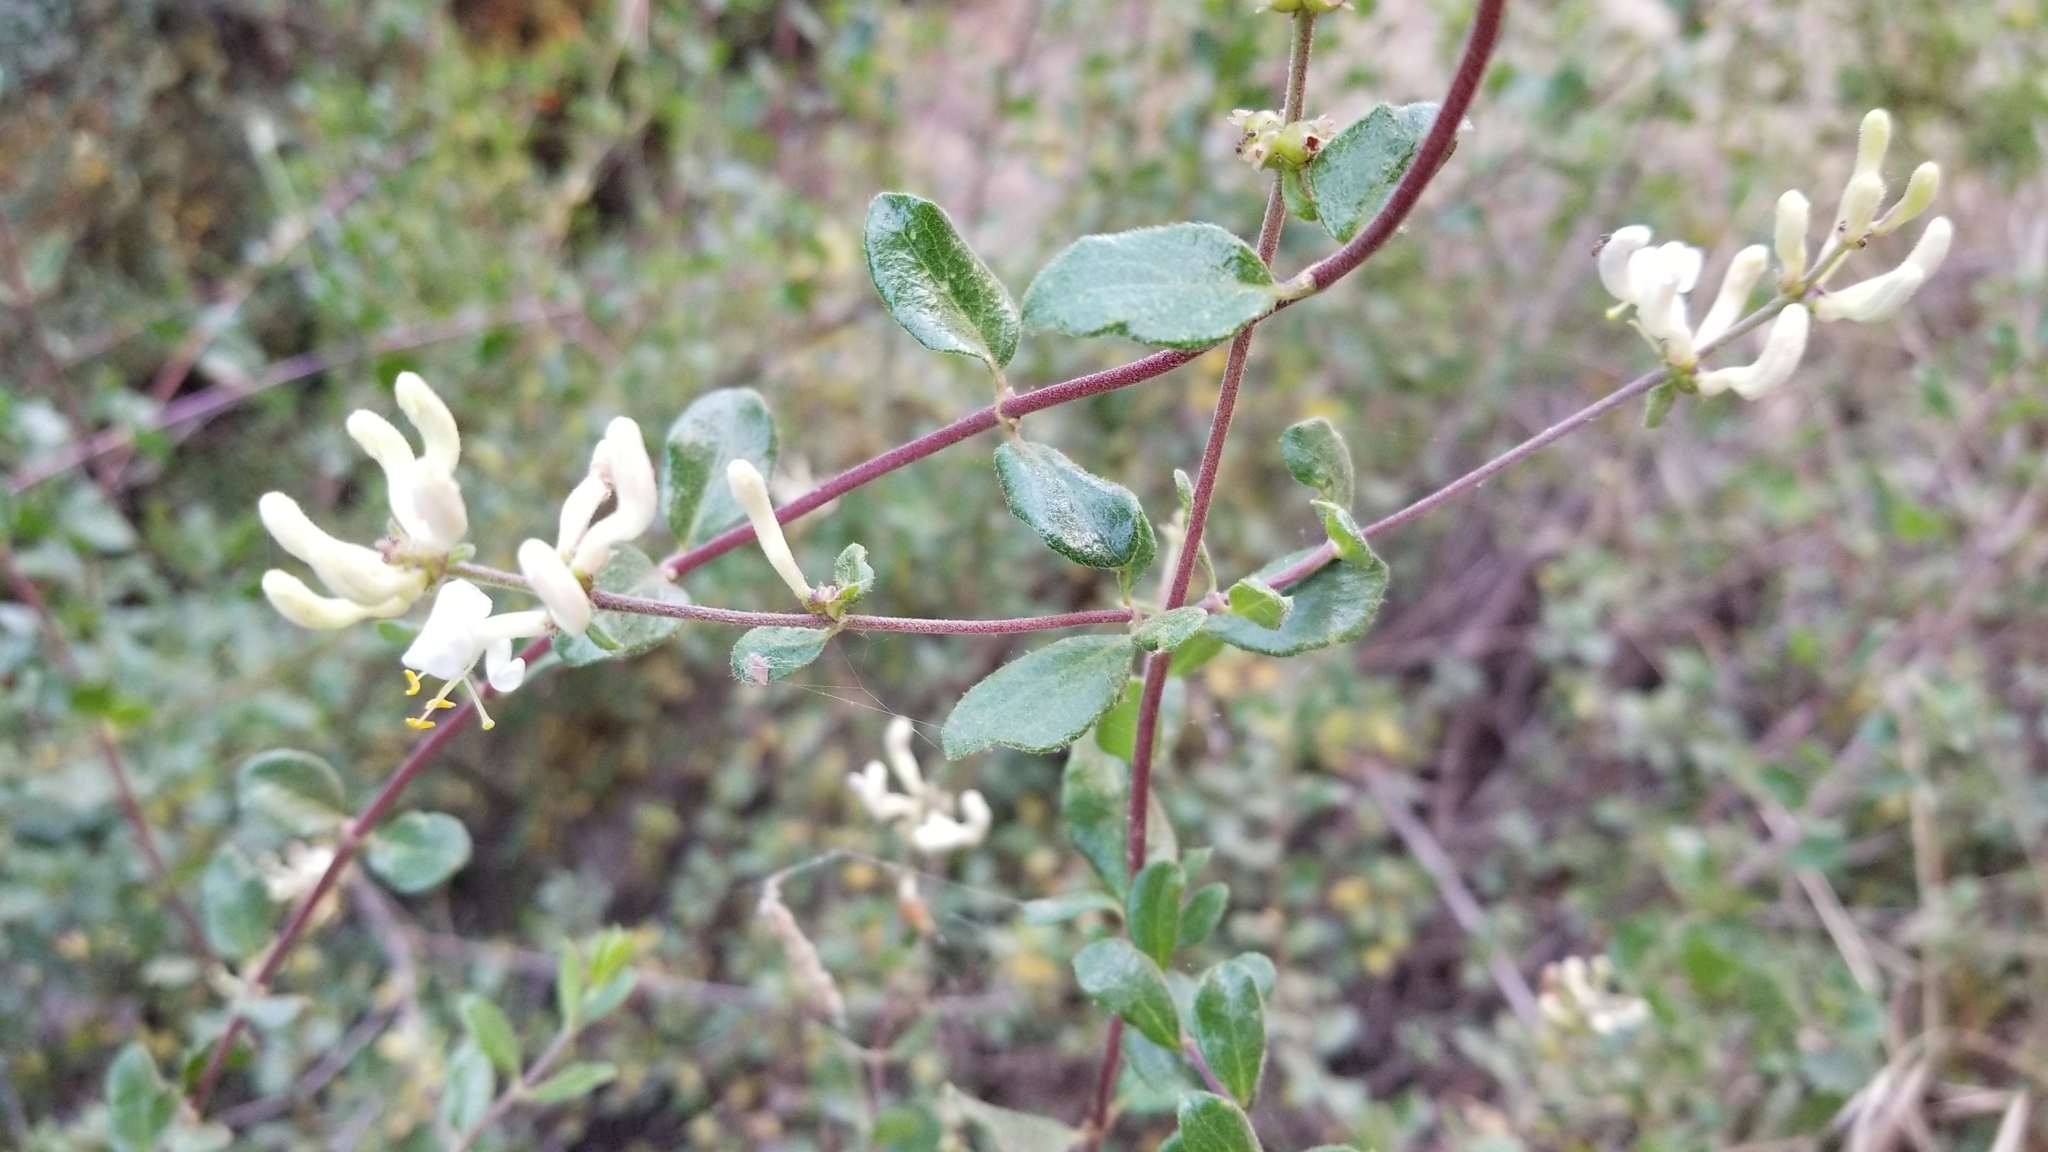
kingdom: Plantae
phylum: Tracheophyta
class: Magnoliopsida
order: Dipsacales
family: Caprifoliaceae
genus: Lonicera
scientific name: Lonicera subspicata
